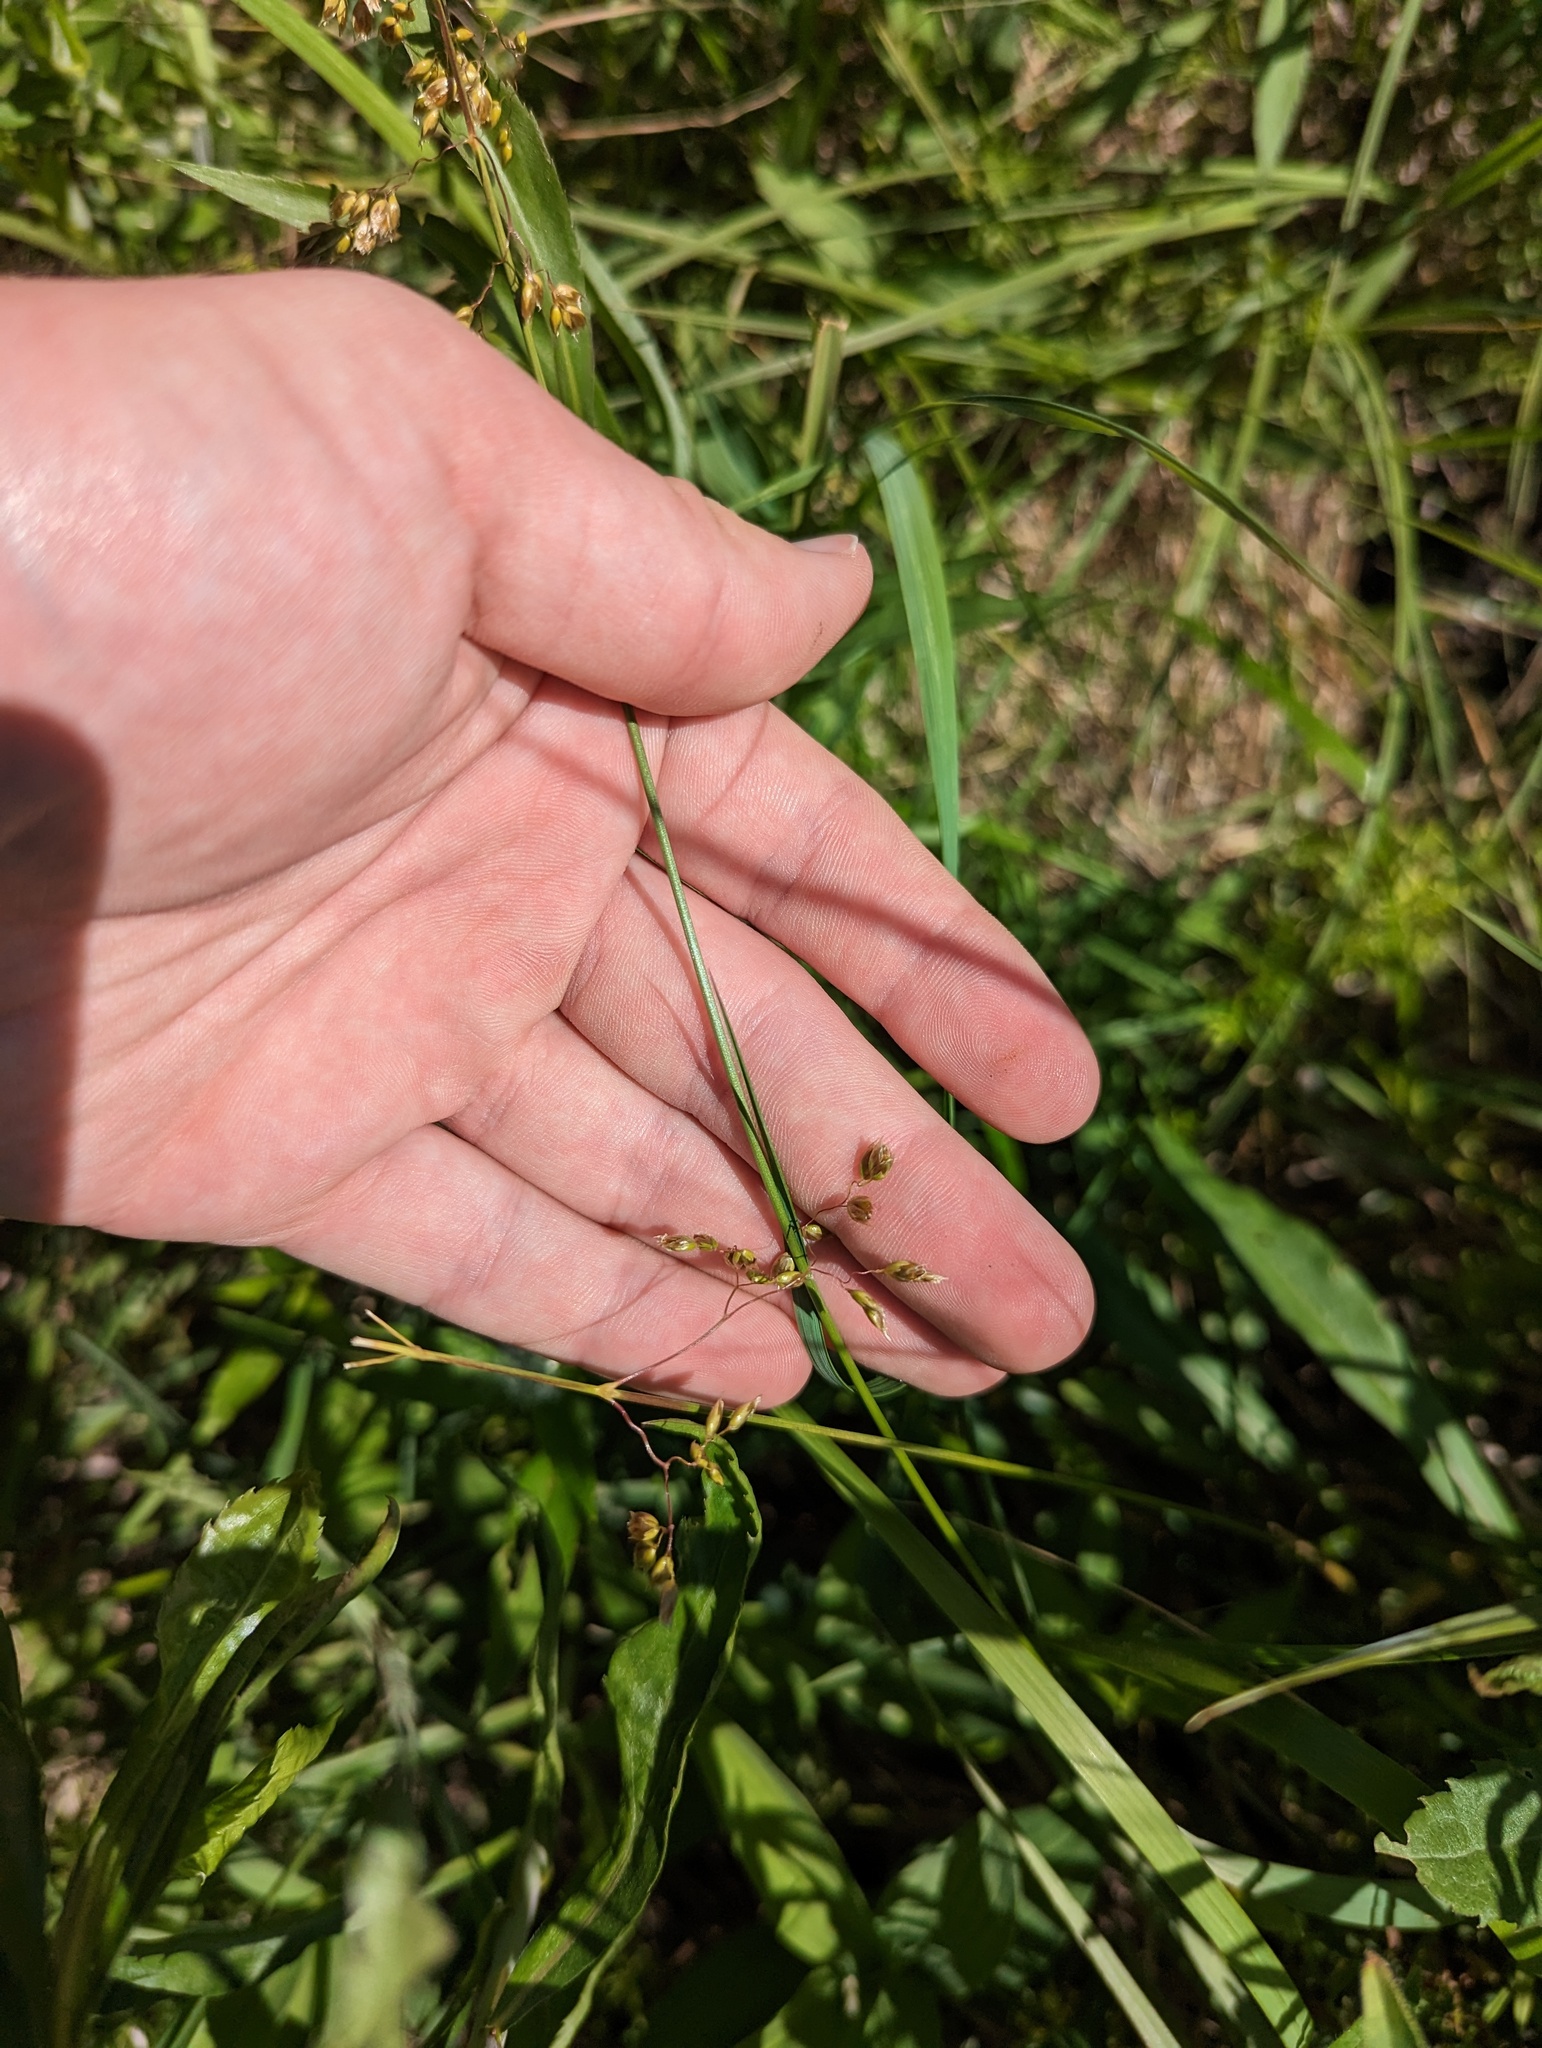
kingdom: Plantae
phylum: Tracheophyta
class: Liliopsida
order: Poales
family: Poaceae
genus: Anthoxanthum
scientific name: Anthoxanthum nitens
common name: Holy grass
